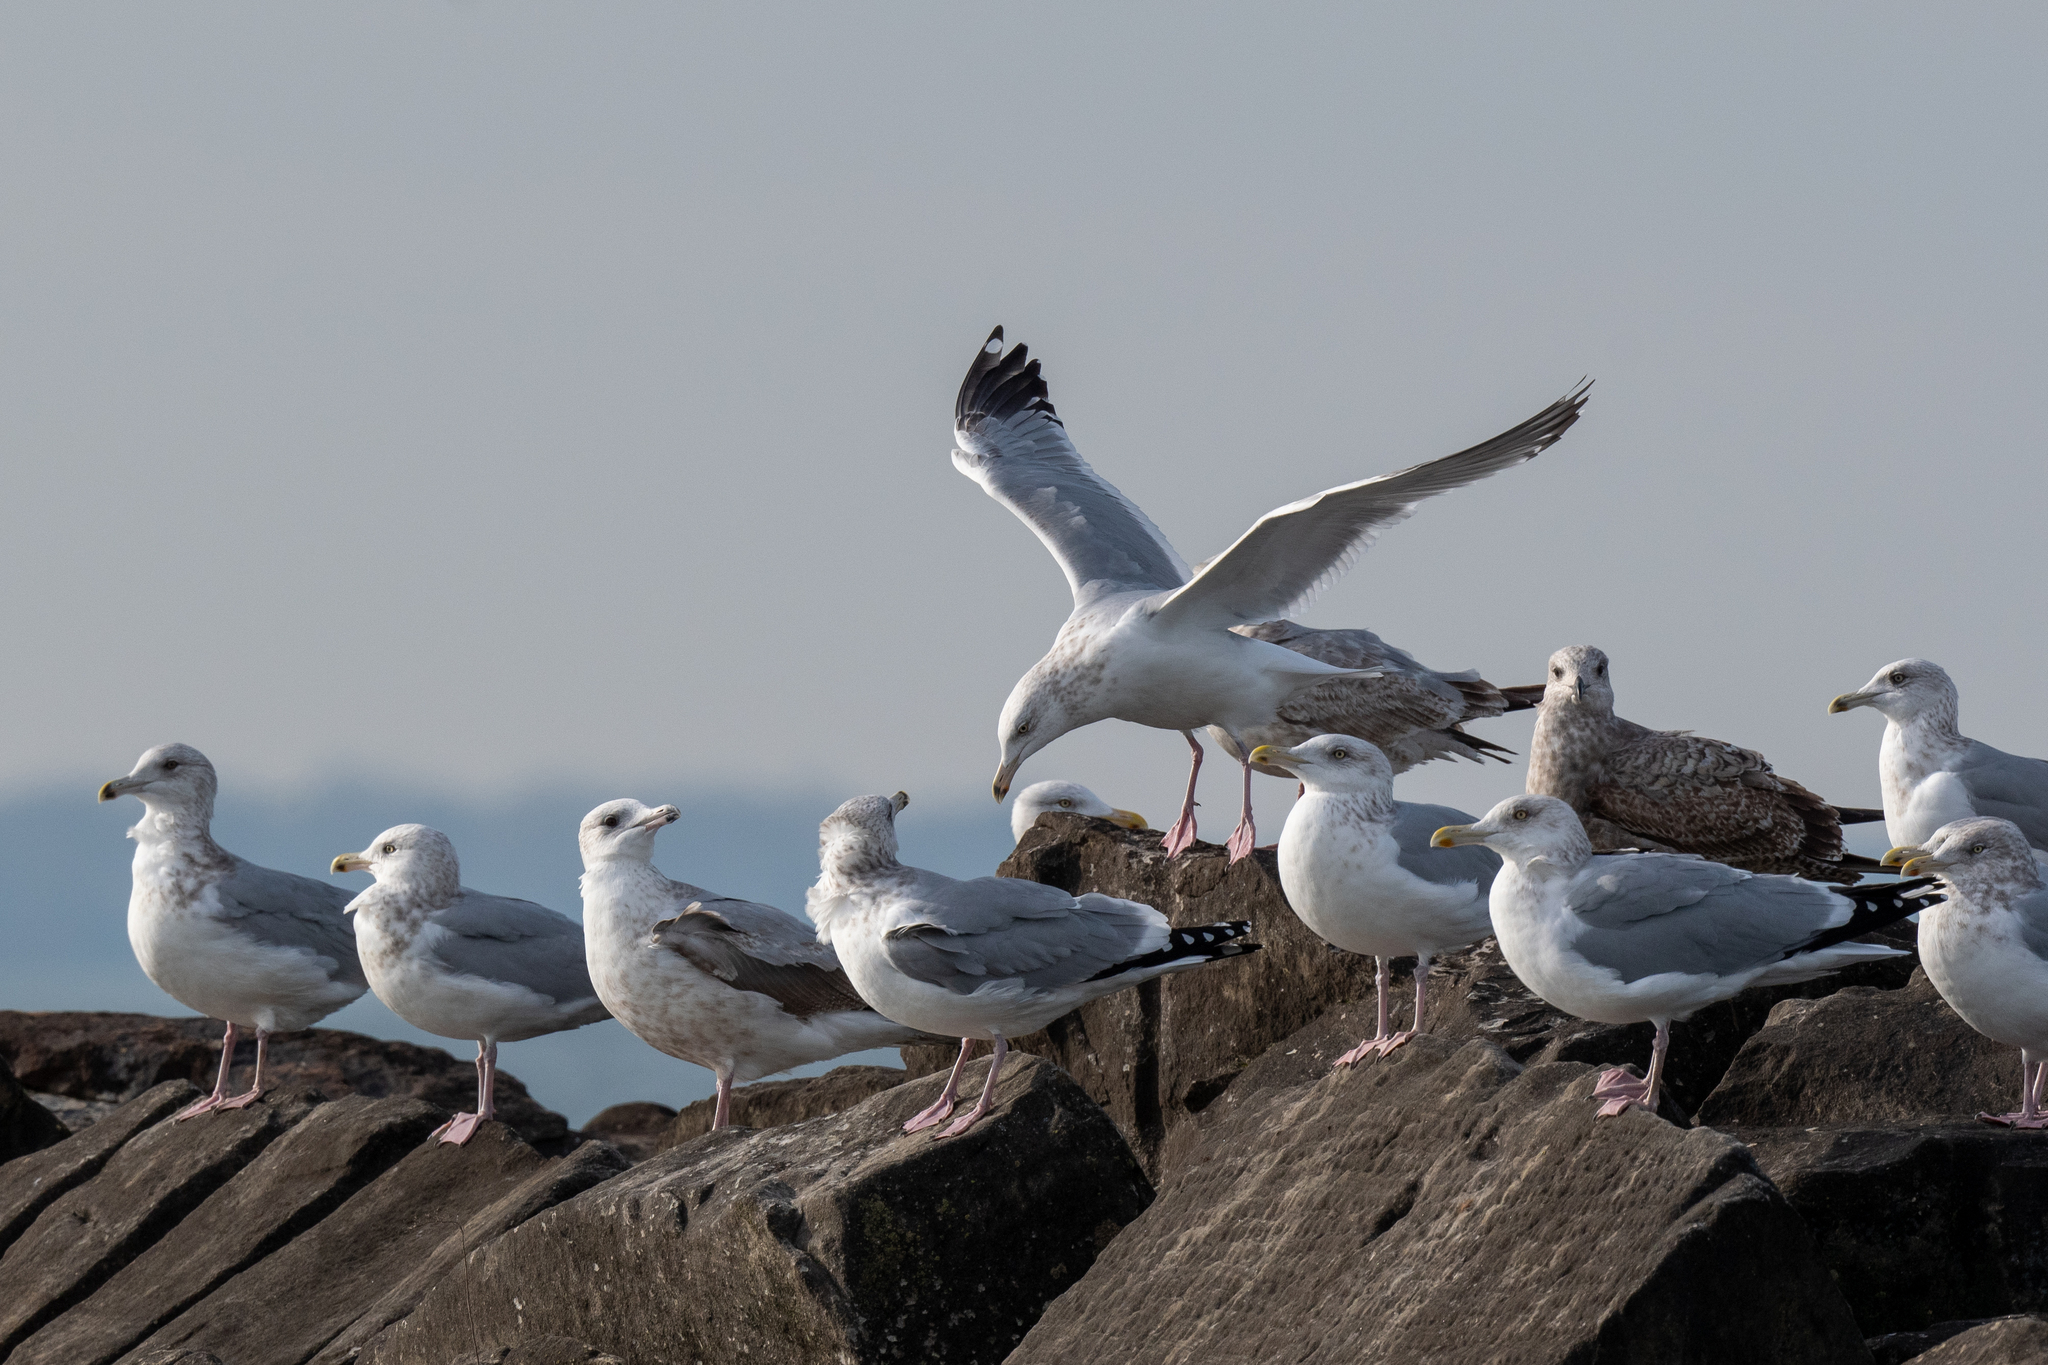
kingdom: Animalia
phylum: Chordata
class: Aves
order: Charadriiformes
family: Laridae
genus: Larus
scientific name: Larus argentatus
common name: Herring gull
